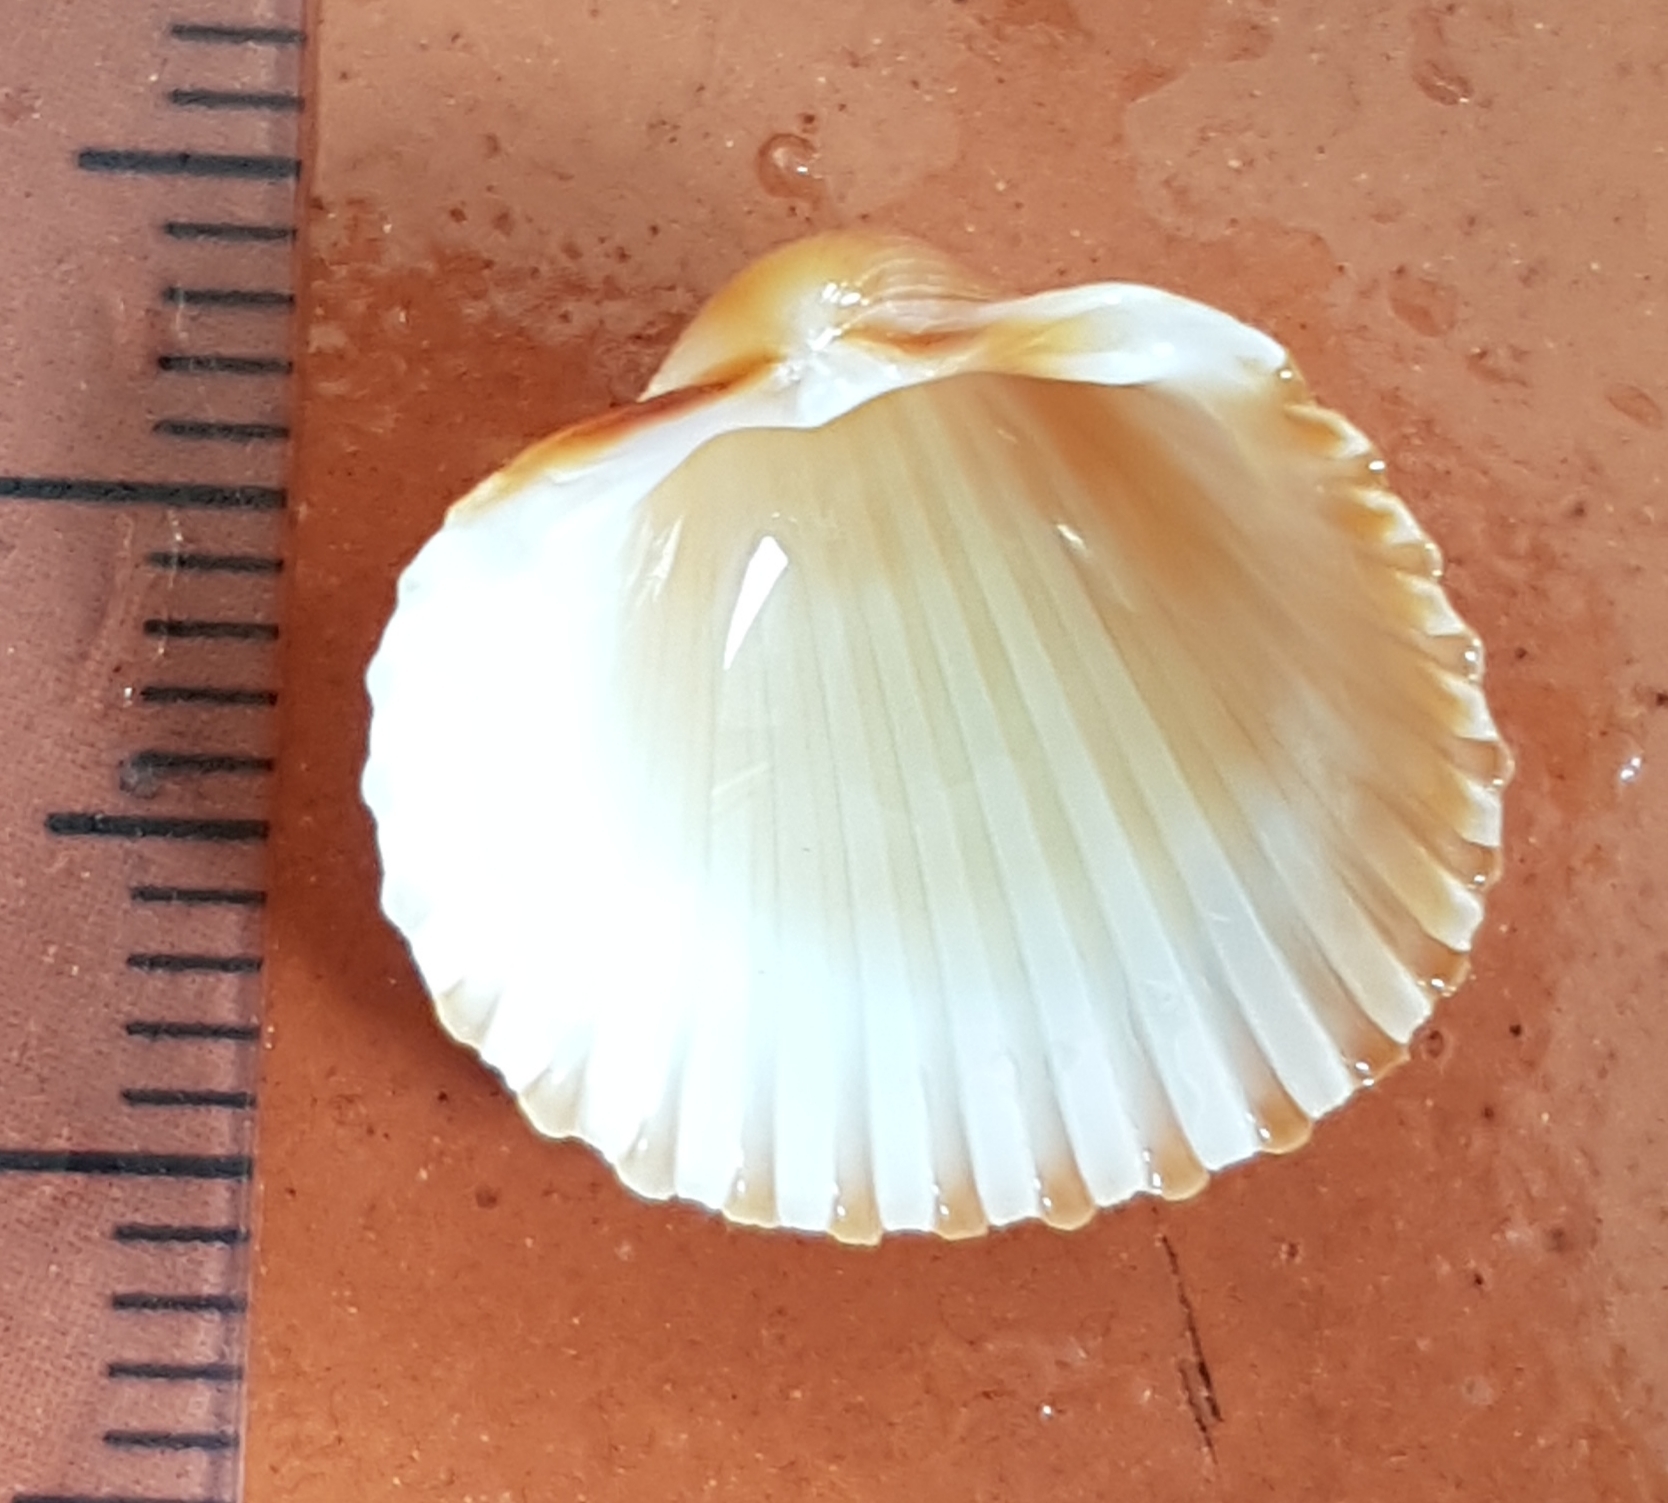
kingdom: Animalia
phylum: Mollusca
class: Bivalvia
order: Cardiida
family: Cardiidae
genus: Acanthocardia
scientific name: Acanthocardia tuberculata
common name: Rough cockle
